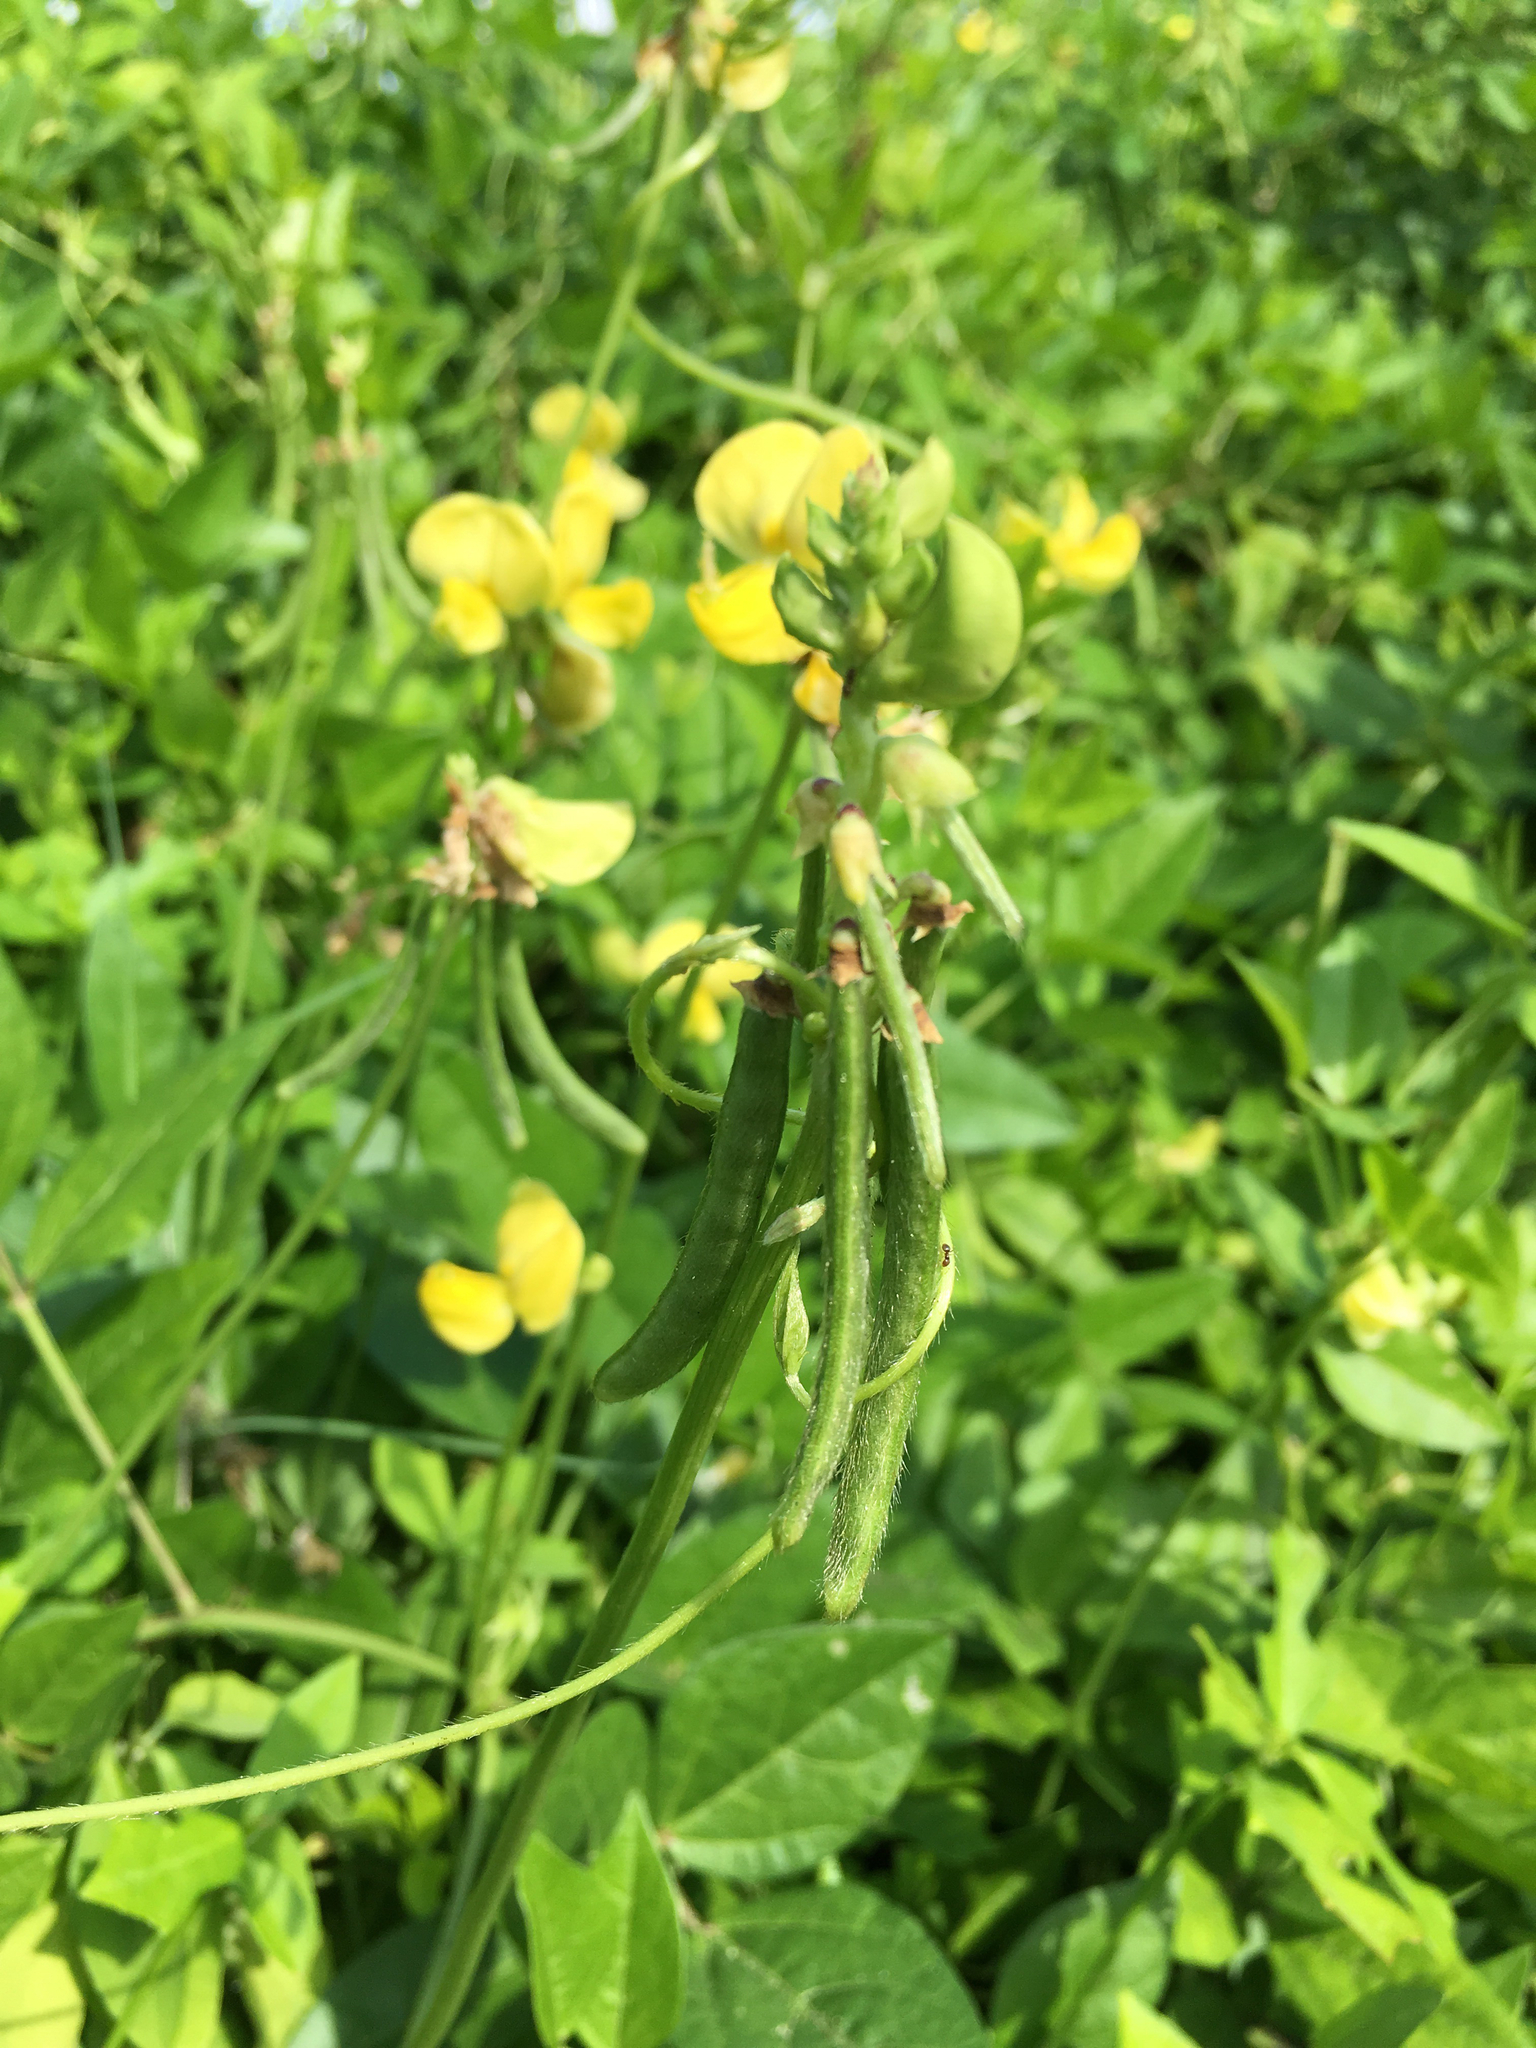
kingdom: Plantae
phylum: Tracheophyta
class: Magnoliopsida
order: Fabales
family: Fabaceae
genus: Vigna
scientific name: Vigna luteola
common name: Hairypod cowpea
